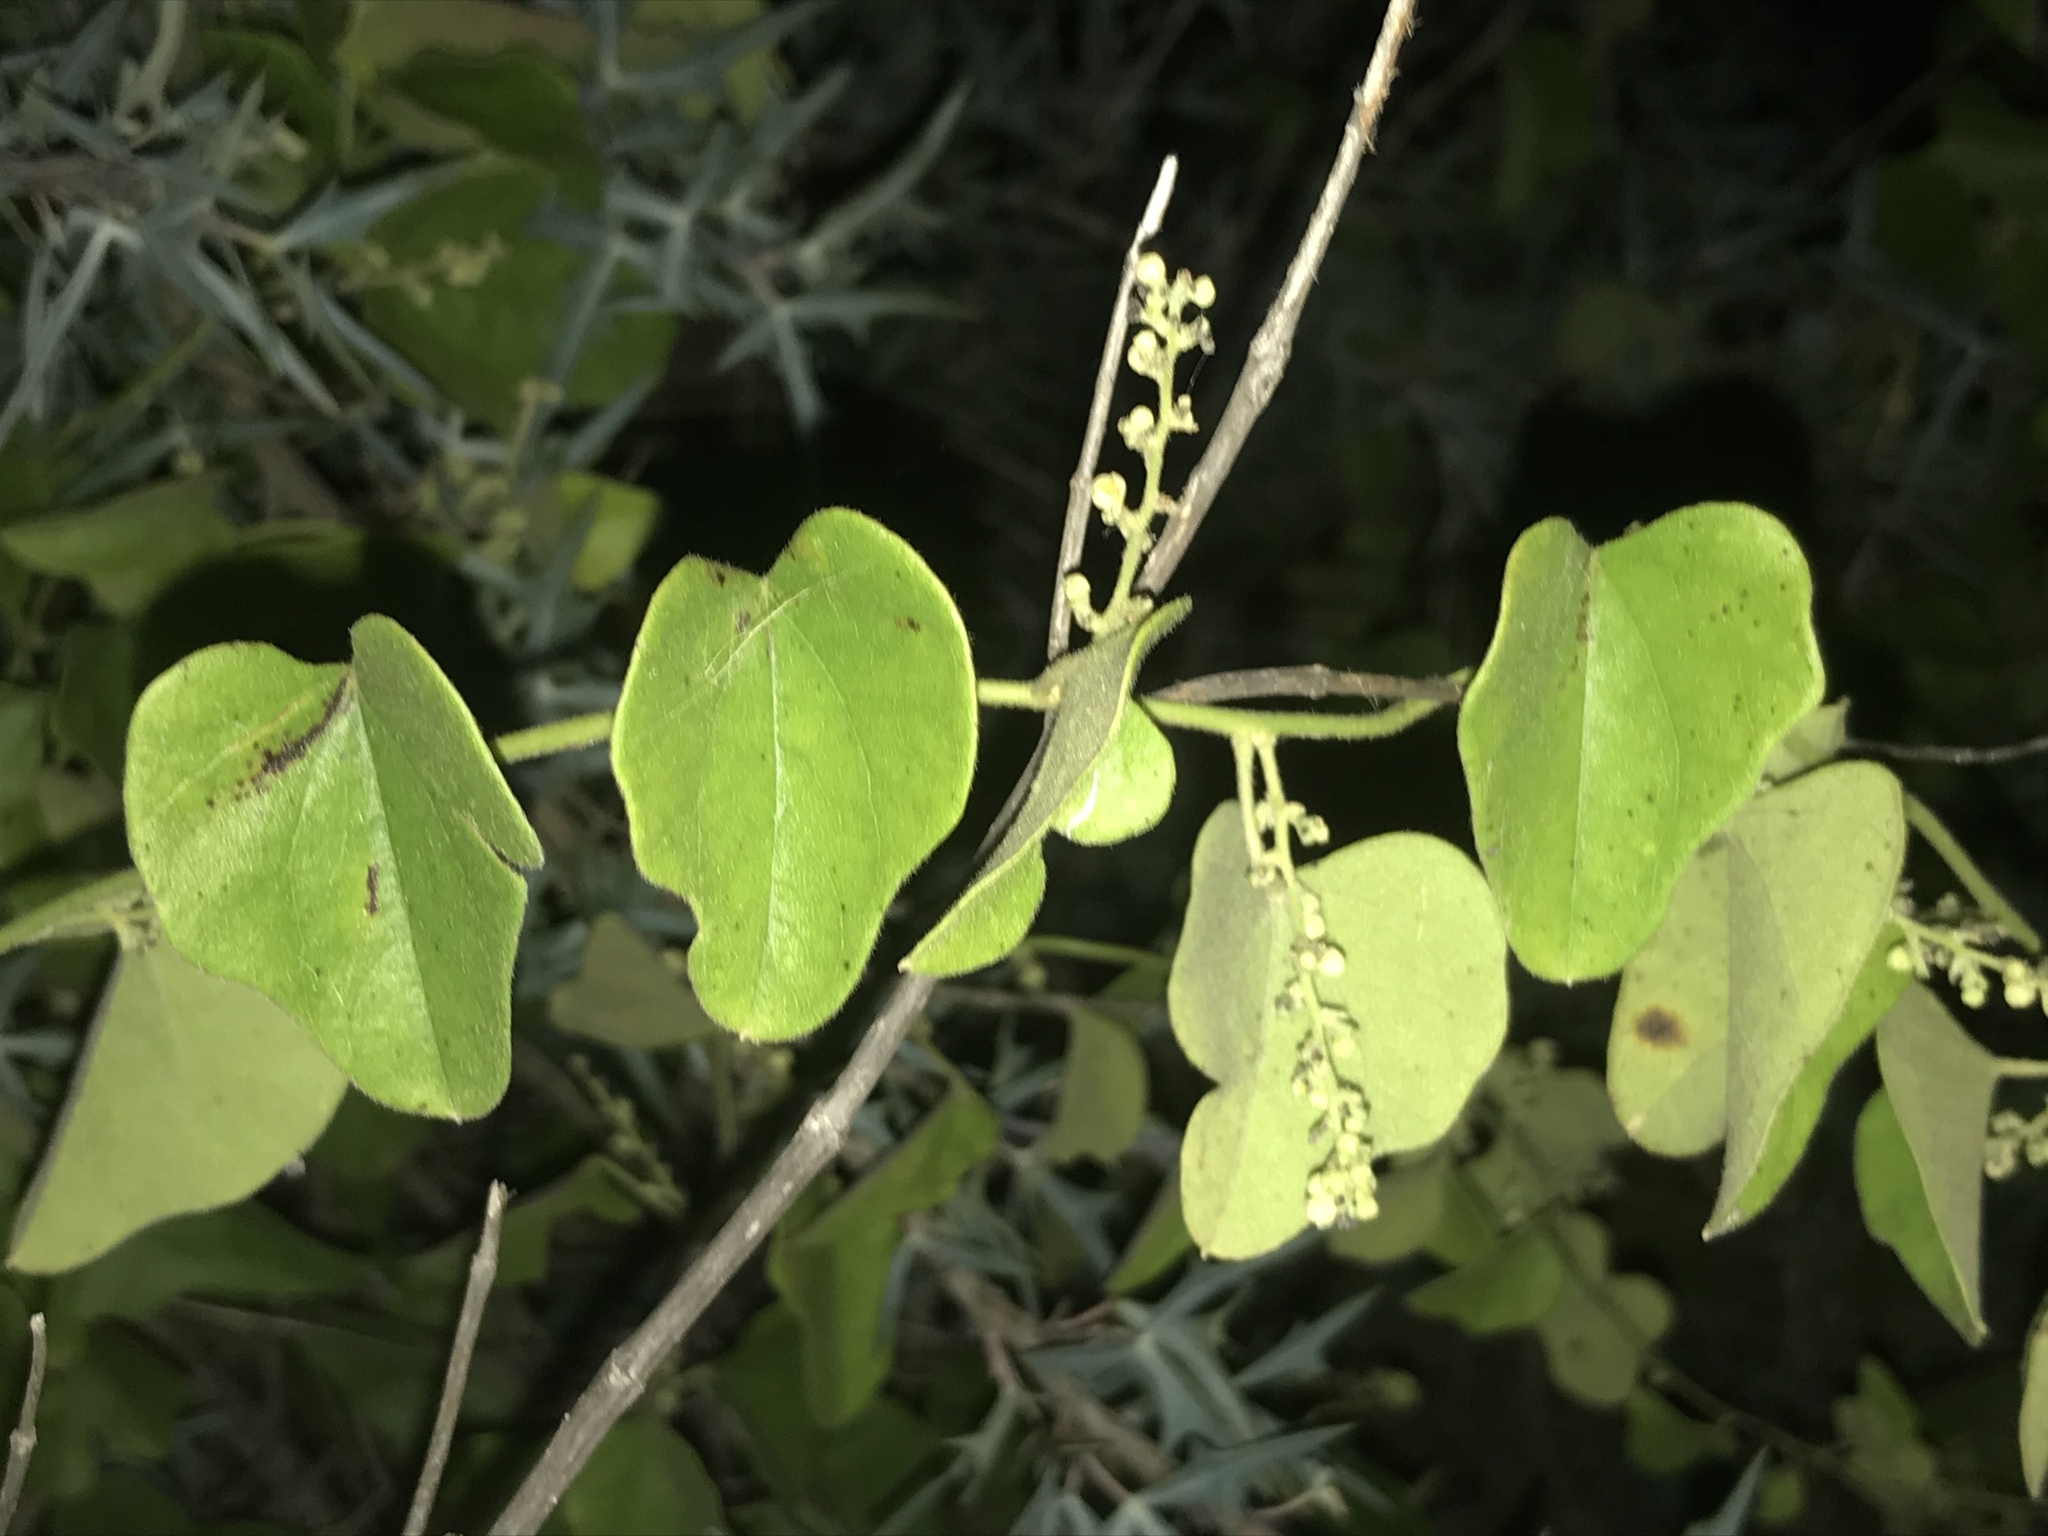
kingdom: Plantae
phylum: Tracheophyta
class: Magnoliopsida
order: Ranunculales
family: Menispermaceae
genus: Cocculus
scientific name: Cocculus carolinus
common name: Carolina moonseed
